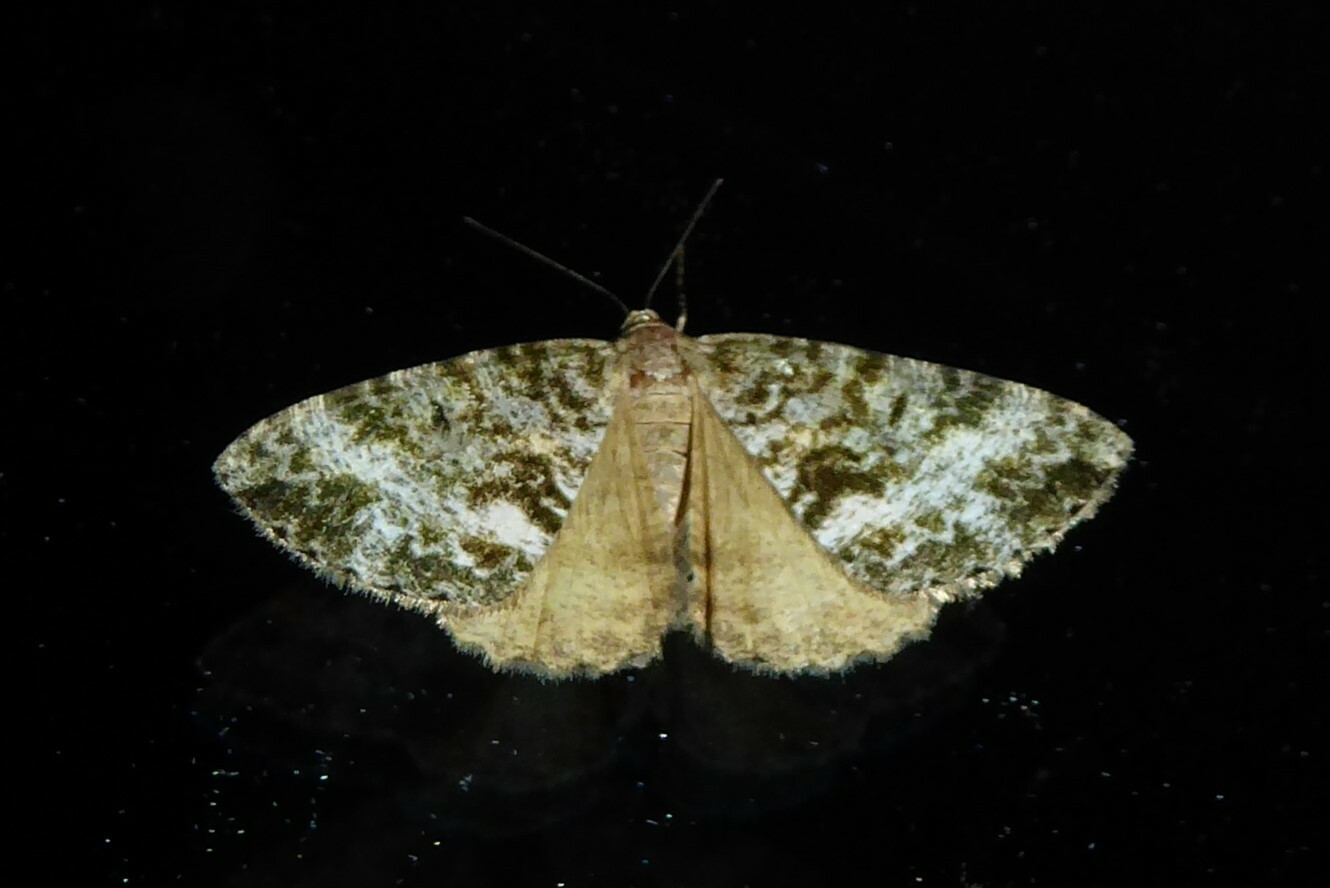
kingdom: Animalia
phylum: Arthropoda
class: Insecta
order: Lepidoptera
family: Geometridae
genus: Pseudocoremia
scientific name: Pseudocoremia lactiflua
